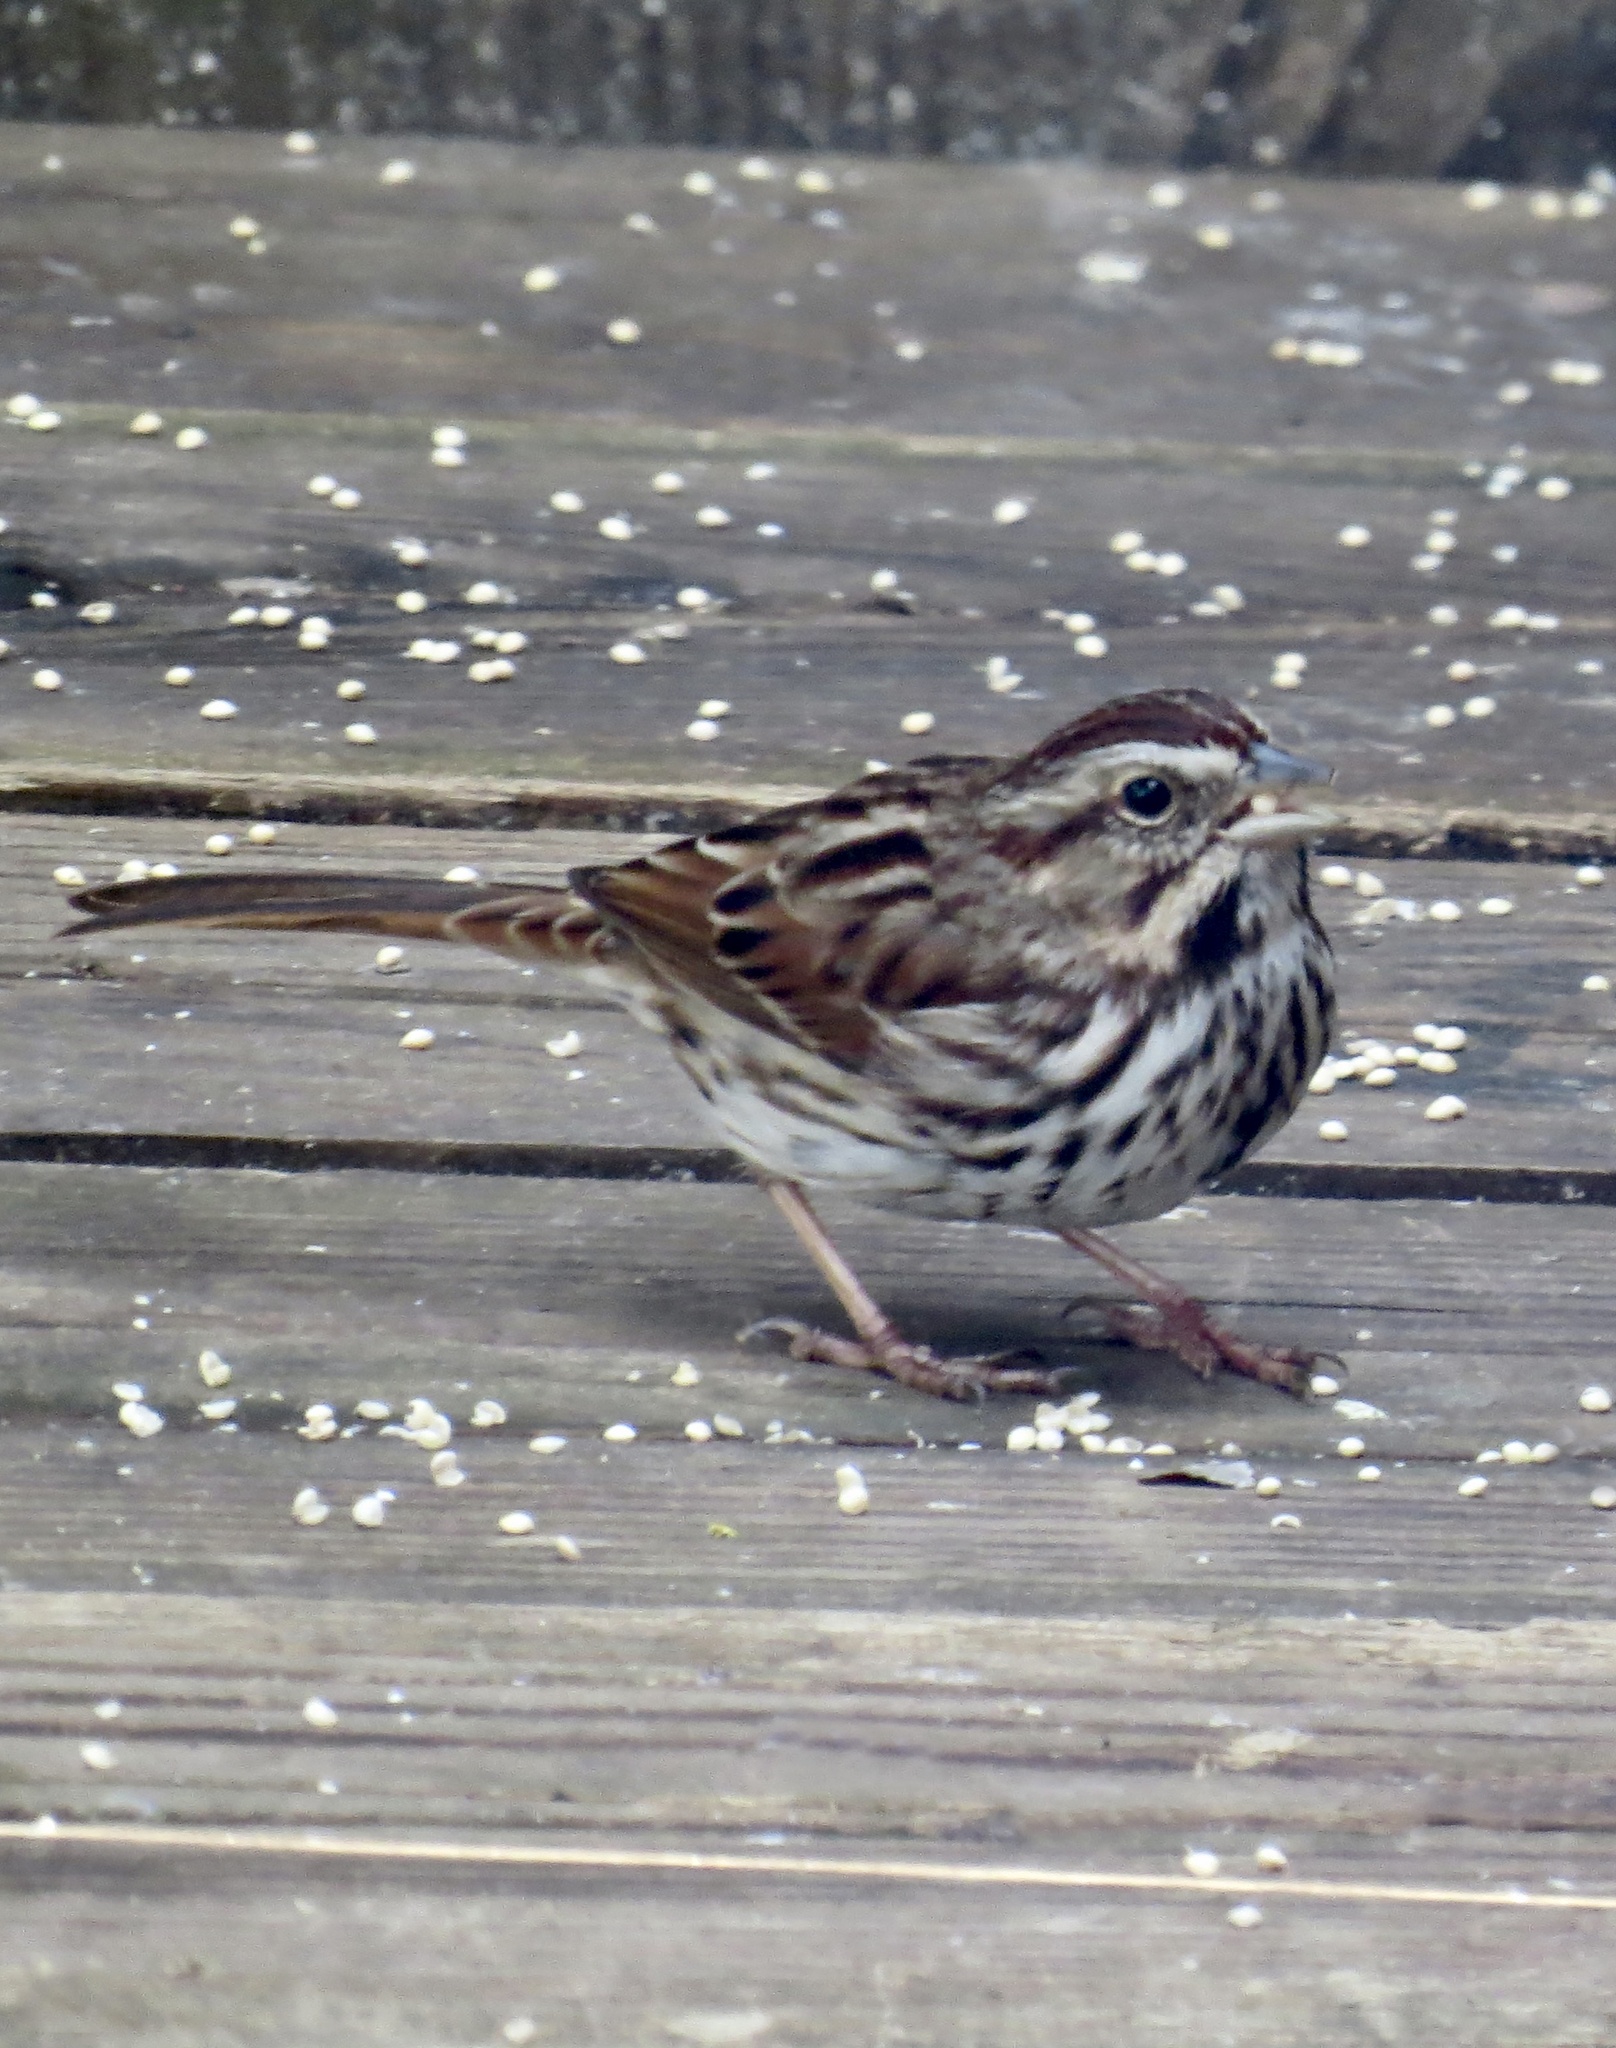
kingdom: Animalia
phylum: Chordata
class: Aves
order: Passeriformes
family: Passerellidae
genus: Melospiza
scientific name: Melospiza melodia
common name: Song sparrow
